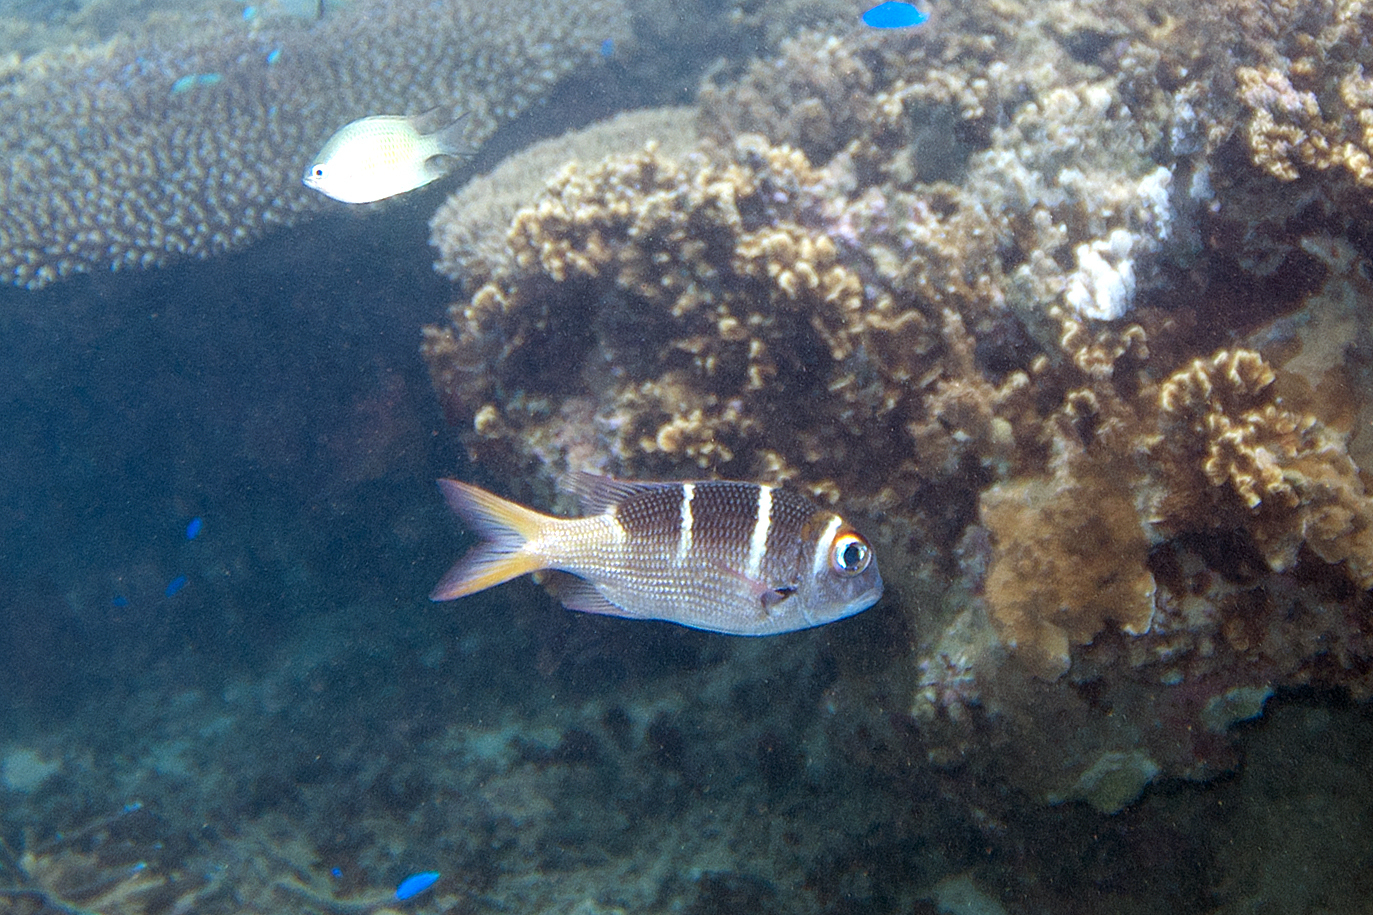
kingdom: Animalia
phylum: Chordata
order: Perciformes
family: Lethrinidae
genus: Monotaxis
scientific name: Monotaxis heterodon
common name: Redfin emperor
